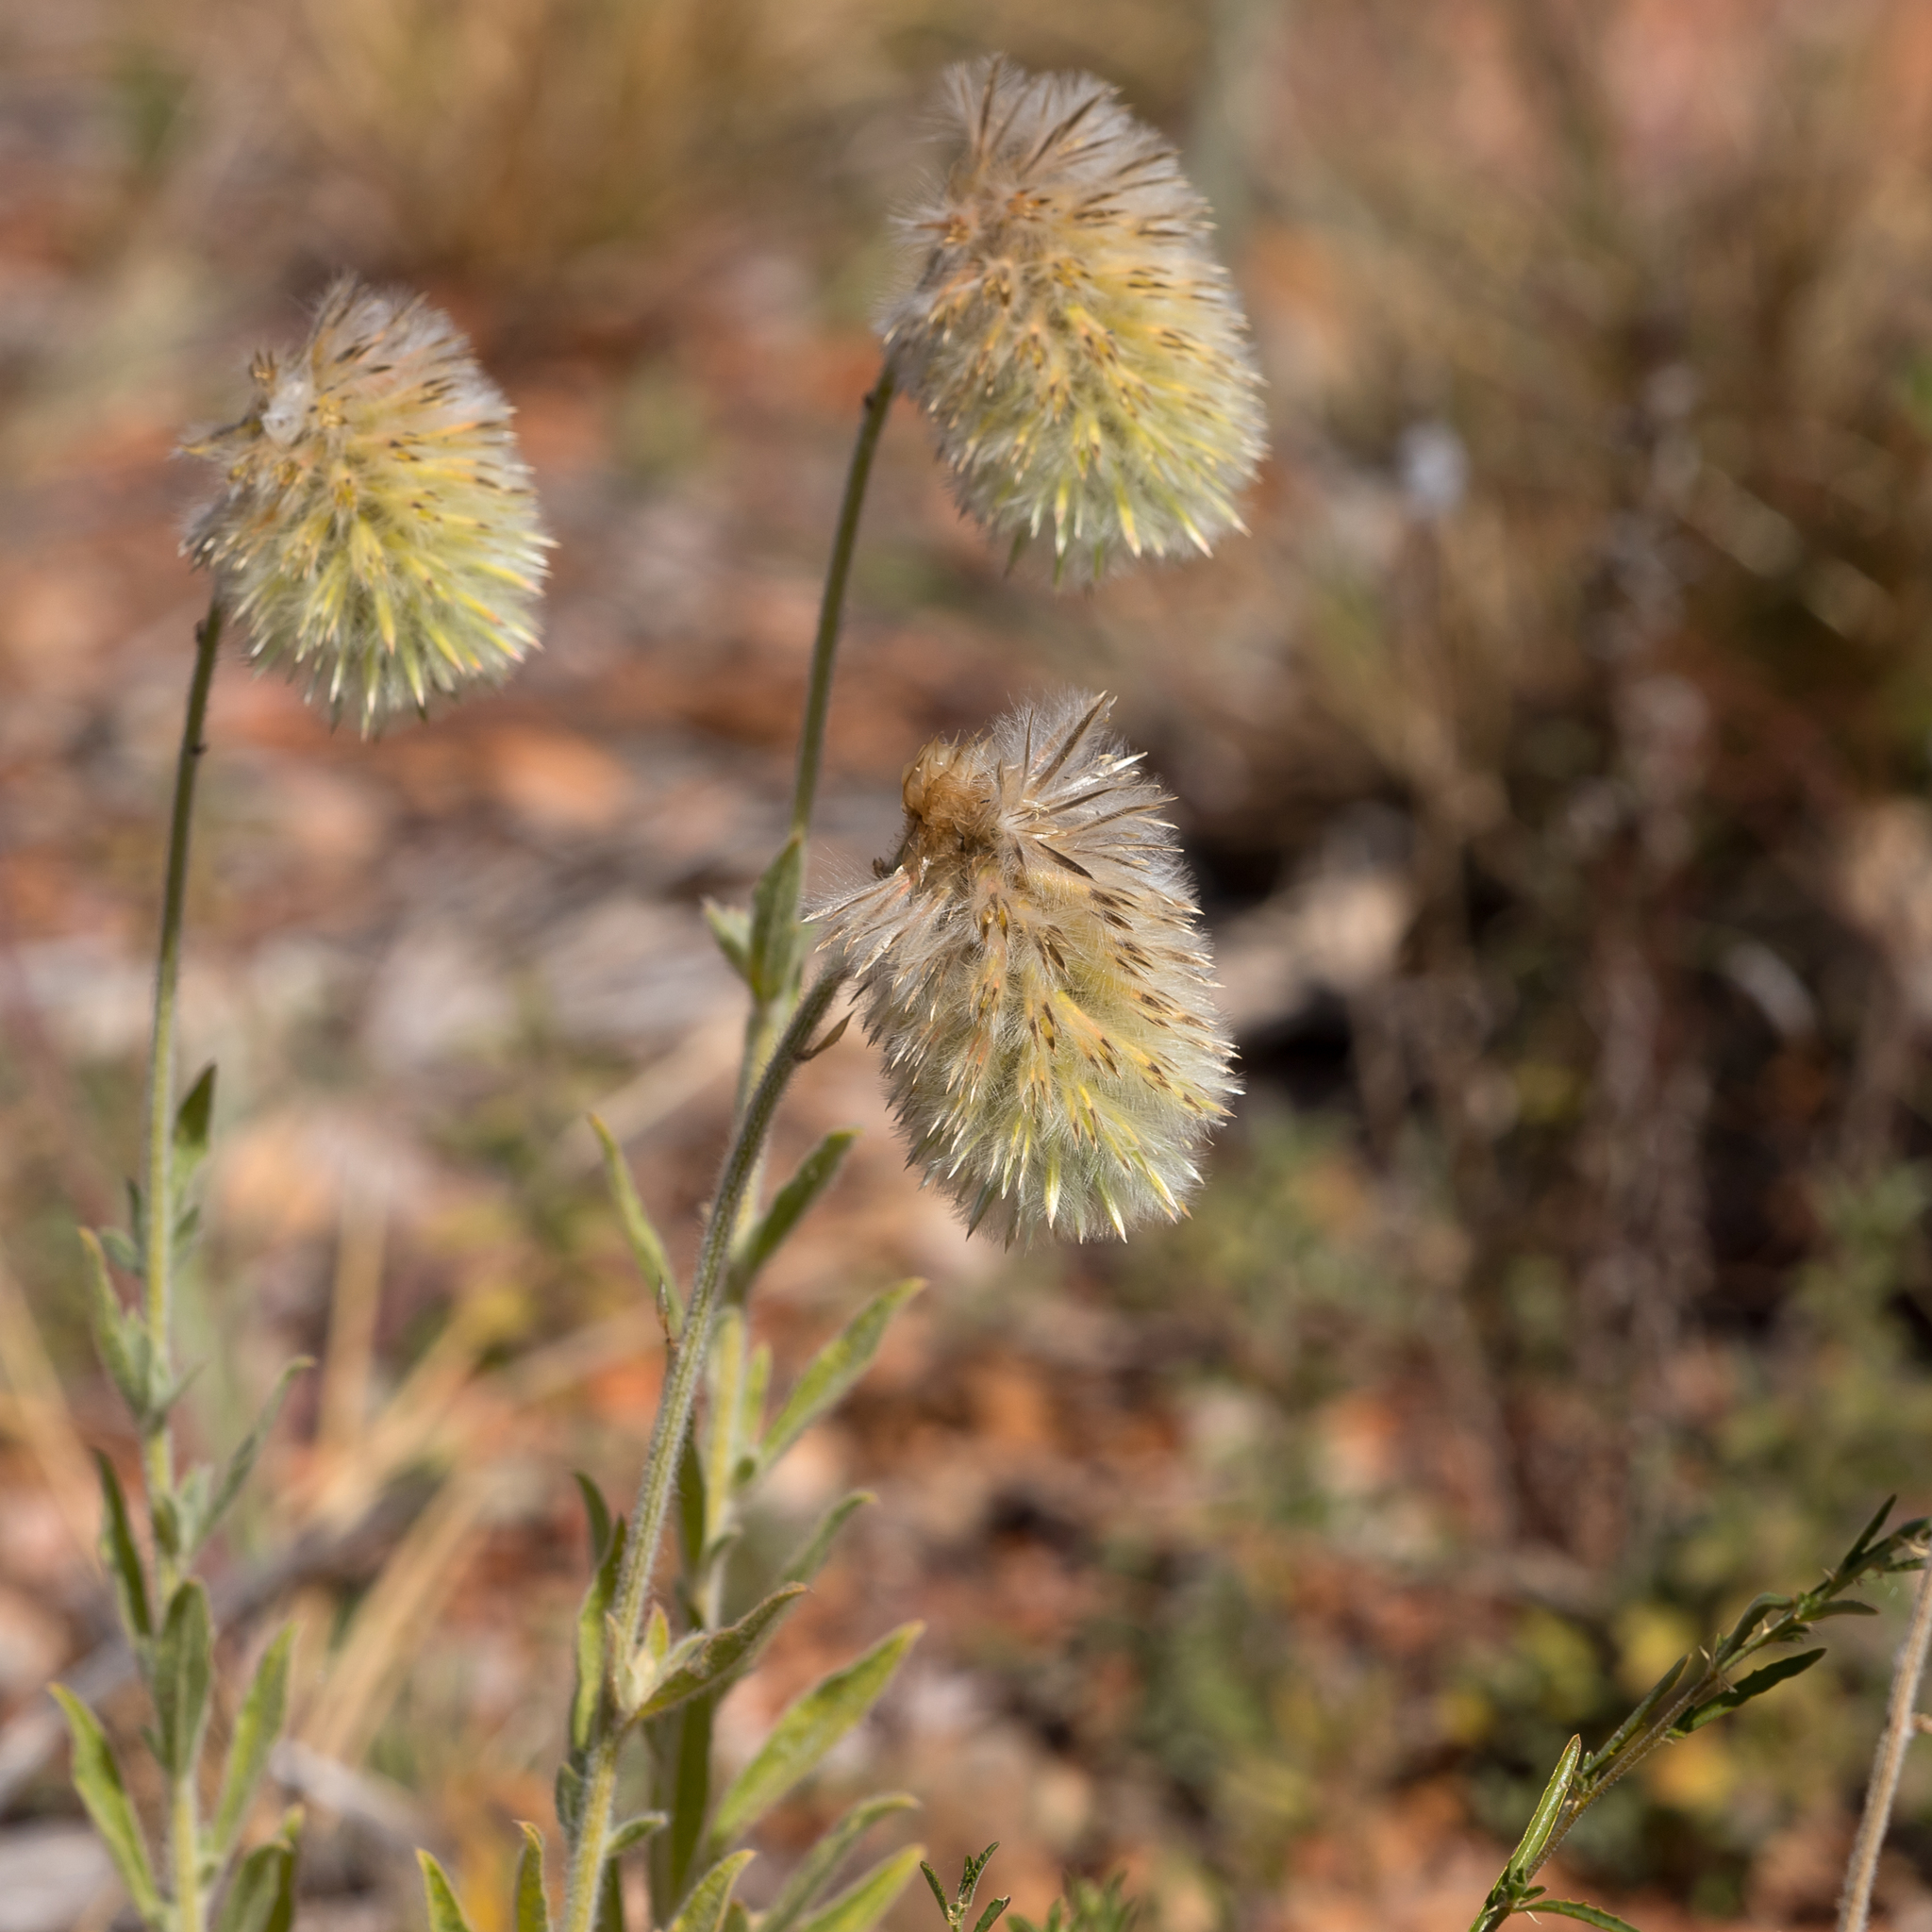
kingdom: Plantae
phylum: Tracheophyta
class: Magnoliopsida
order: Caryophyllales
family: Amaranthaceae
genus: Ptilotus
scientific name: Ptilotus clementii
